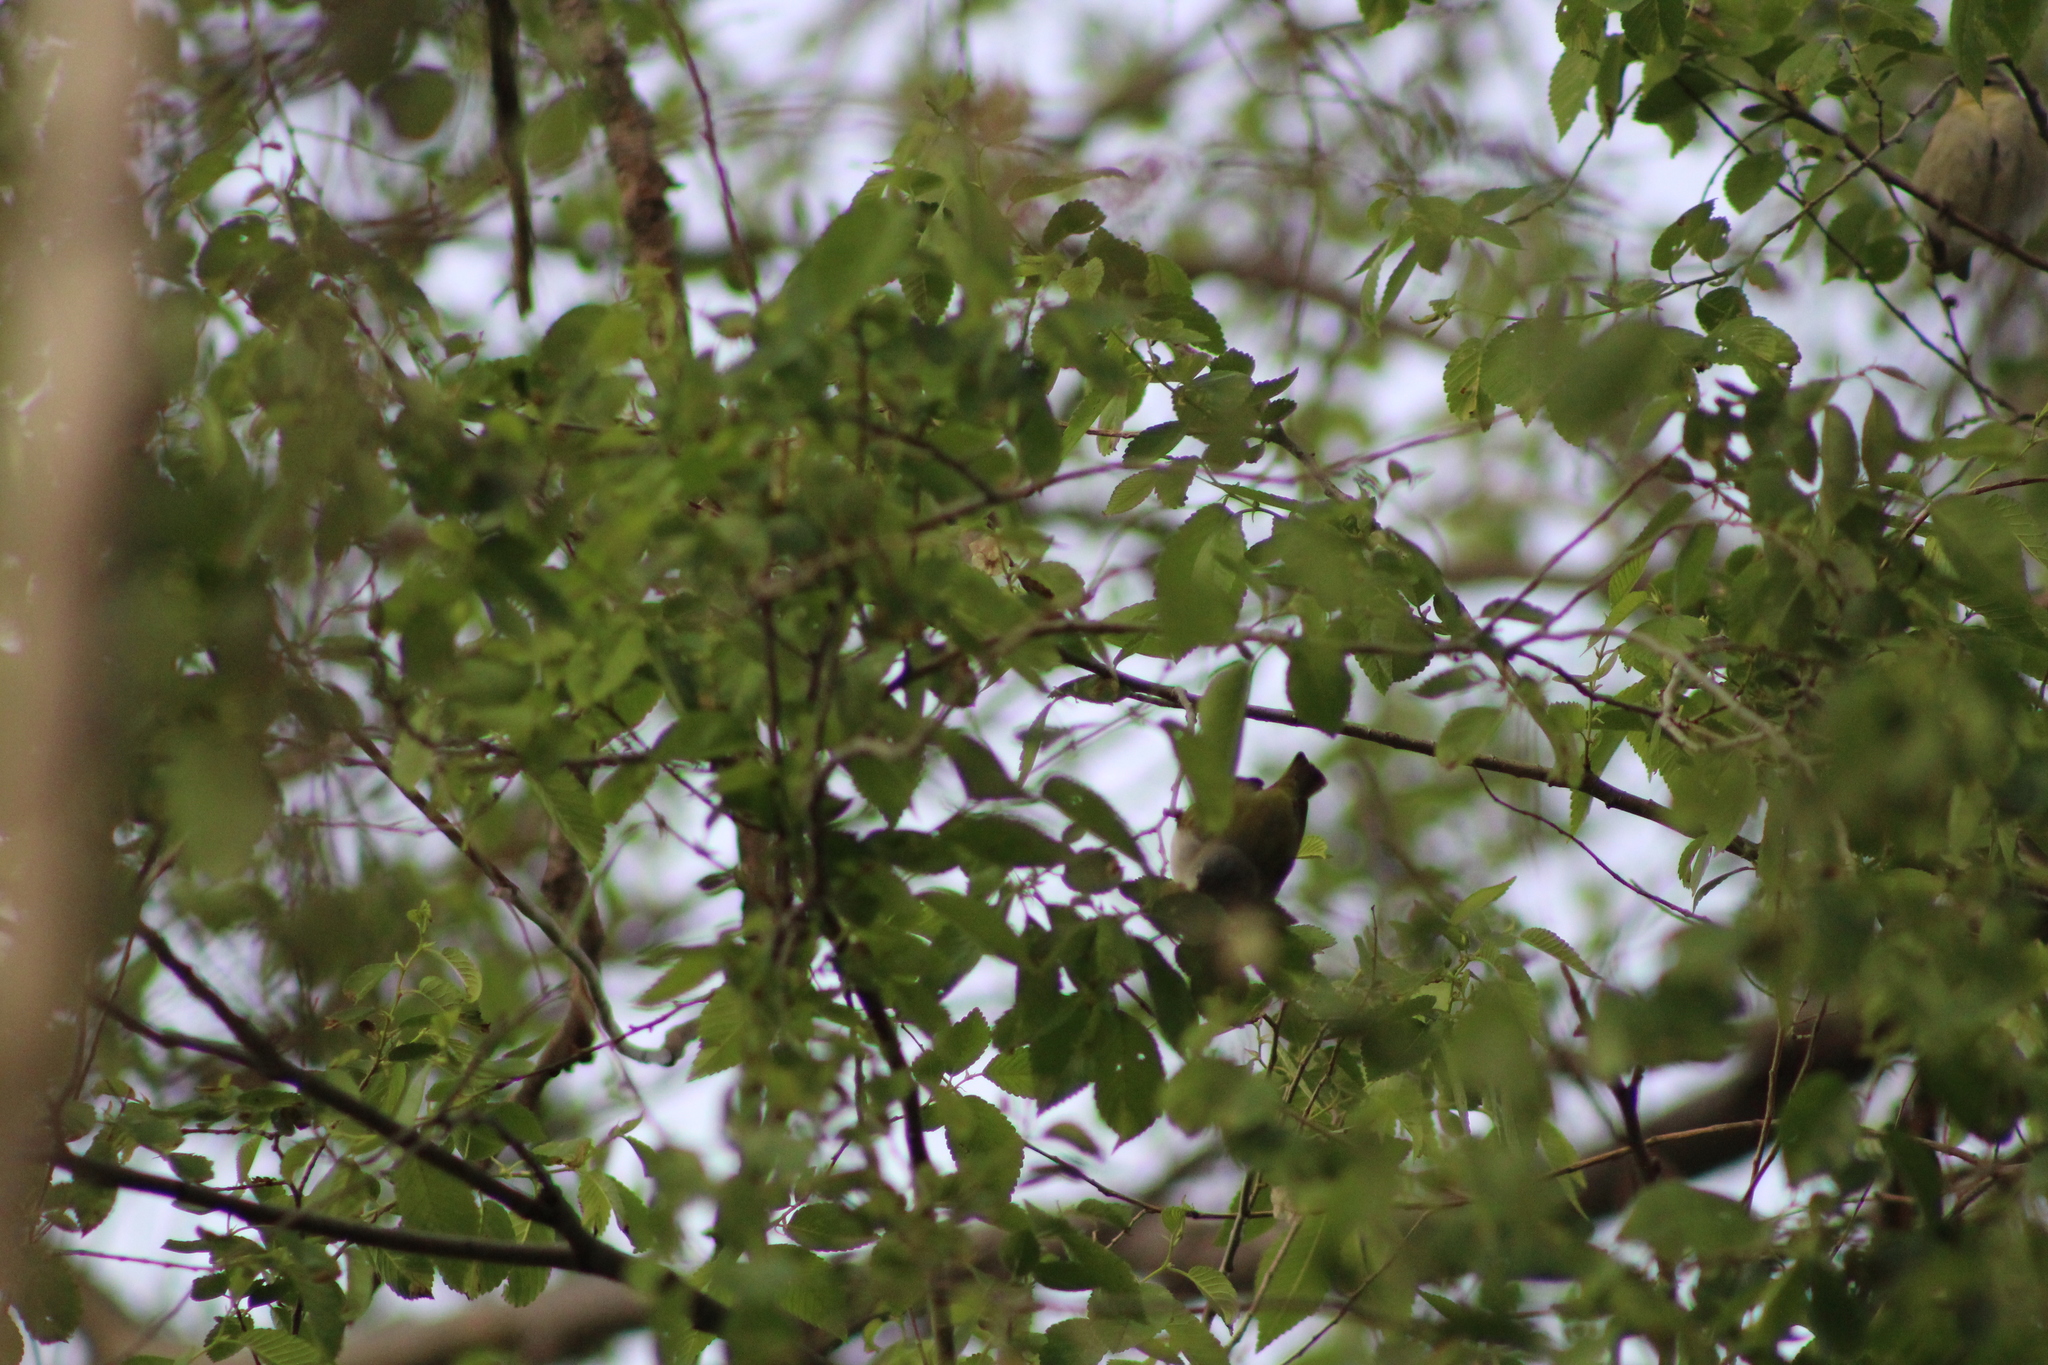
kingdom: Animalia
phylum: Chordata
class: Aves
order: Passeriformes
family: Parulidae
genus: Leiothlypis
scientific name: Leiothlypis peregrina
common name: Tennessee warbler
